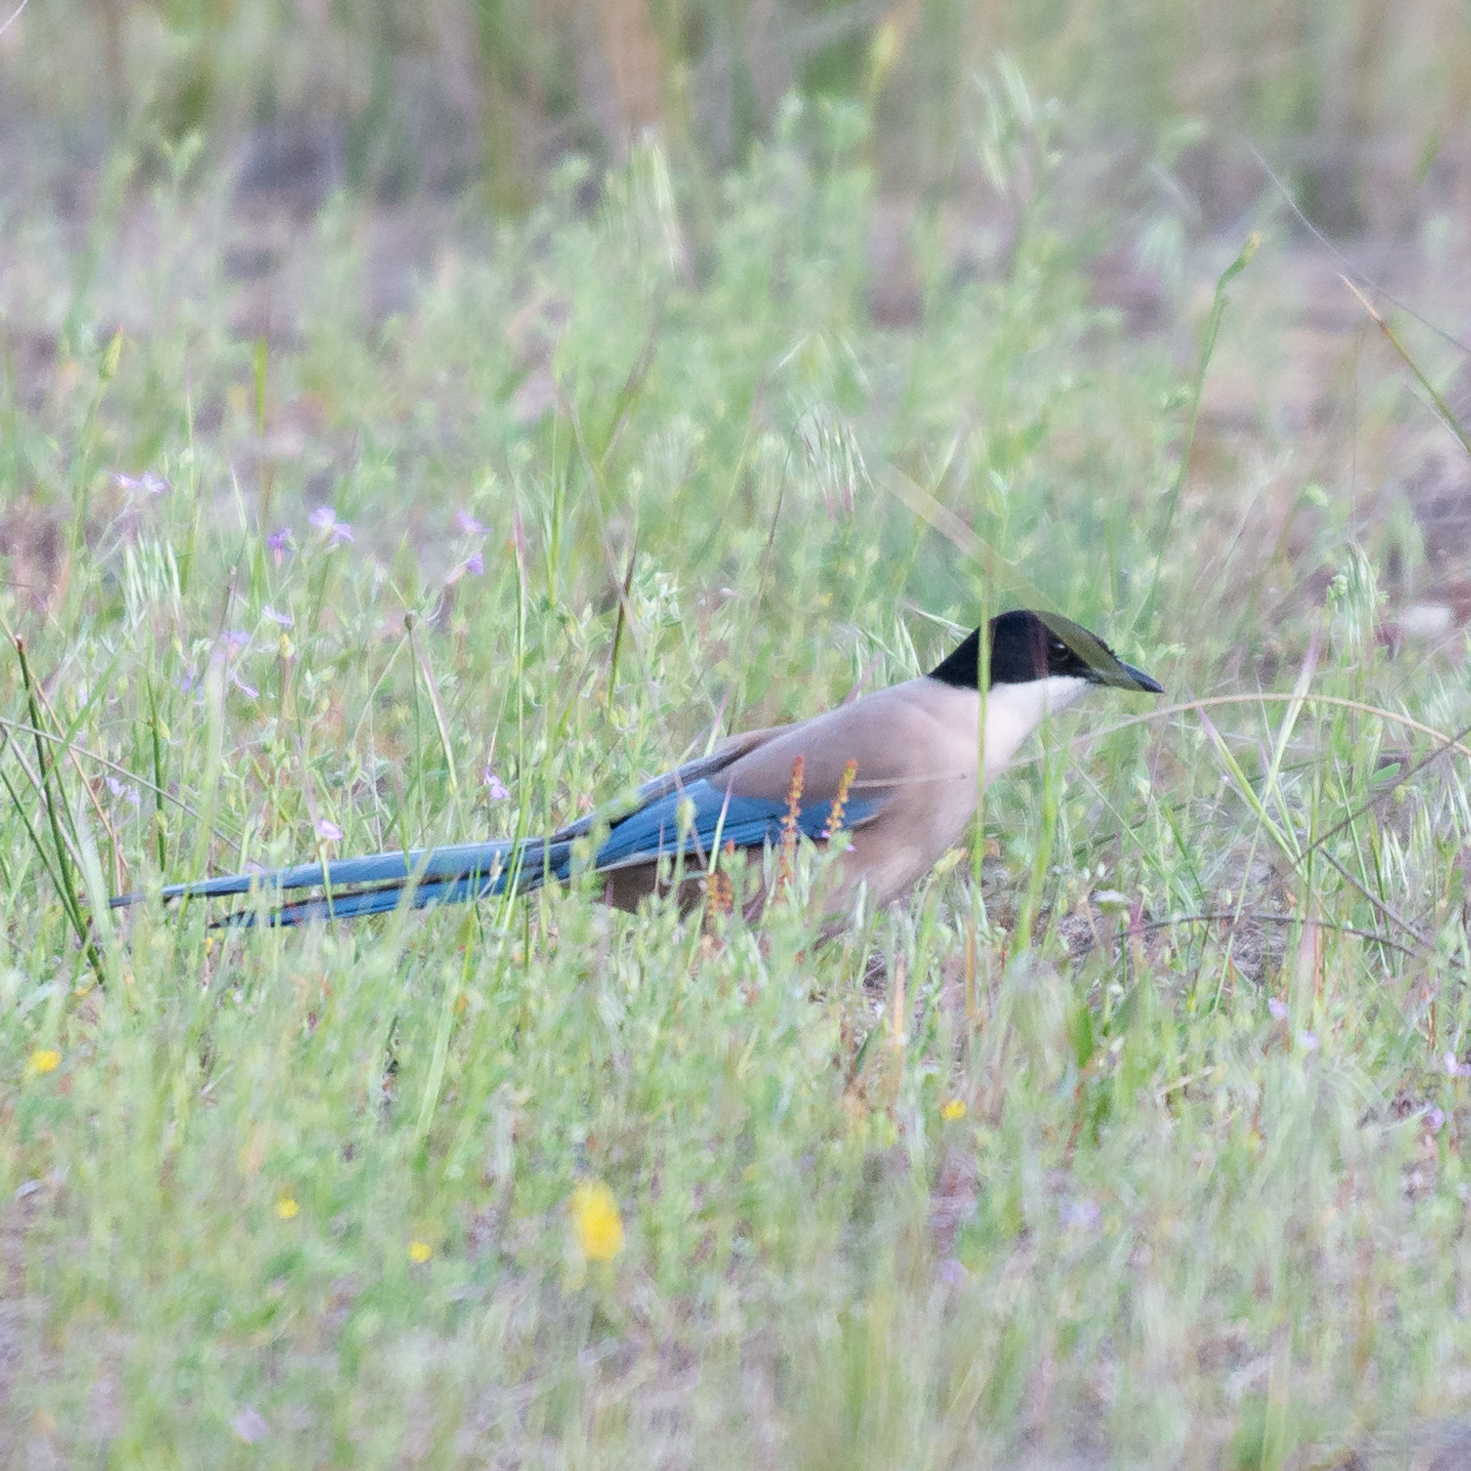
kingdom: Animalia
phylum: Chordata
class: Aves
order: Passeriformes
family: Corvidae
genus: Cyanopica
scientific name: Cyanopica cooki
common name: Iberian magpie
